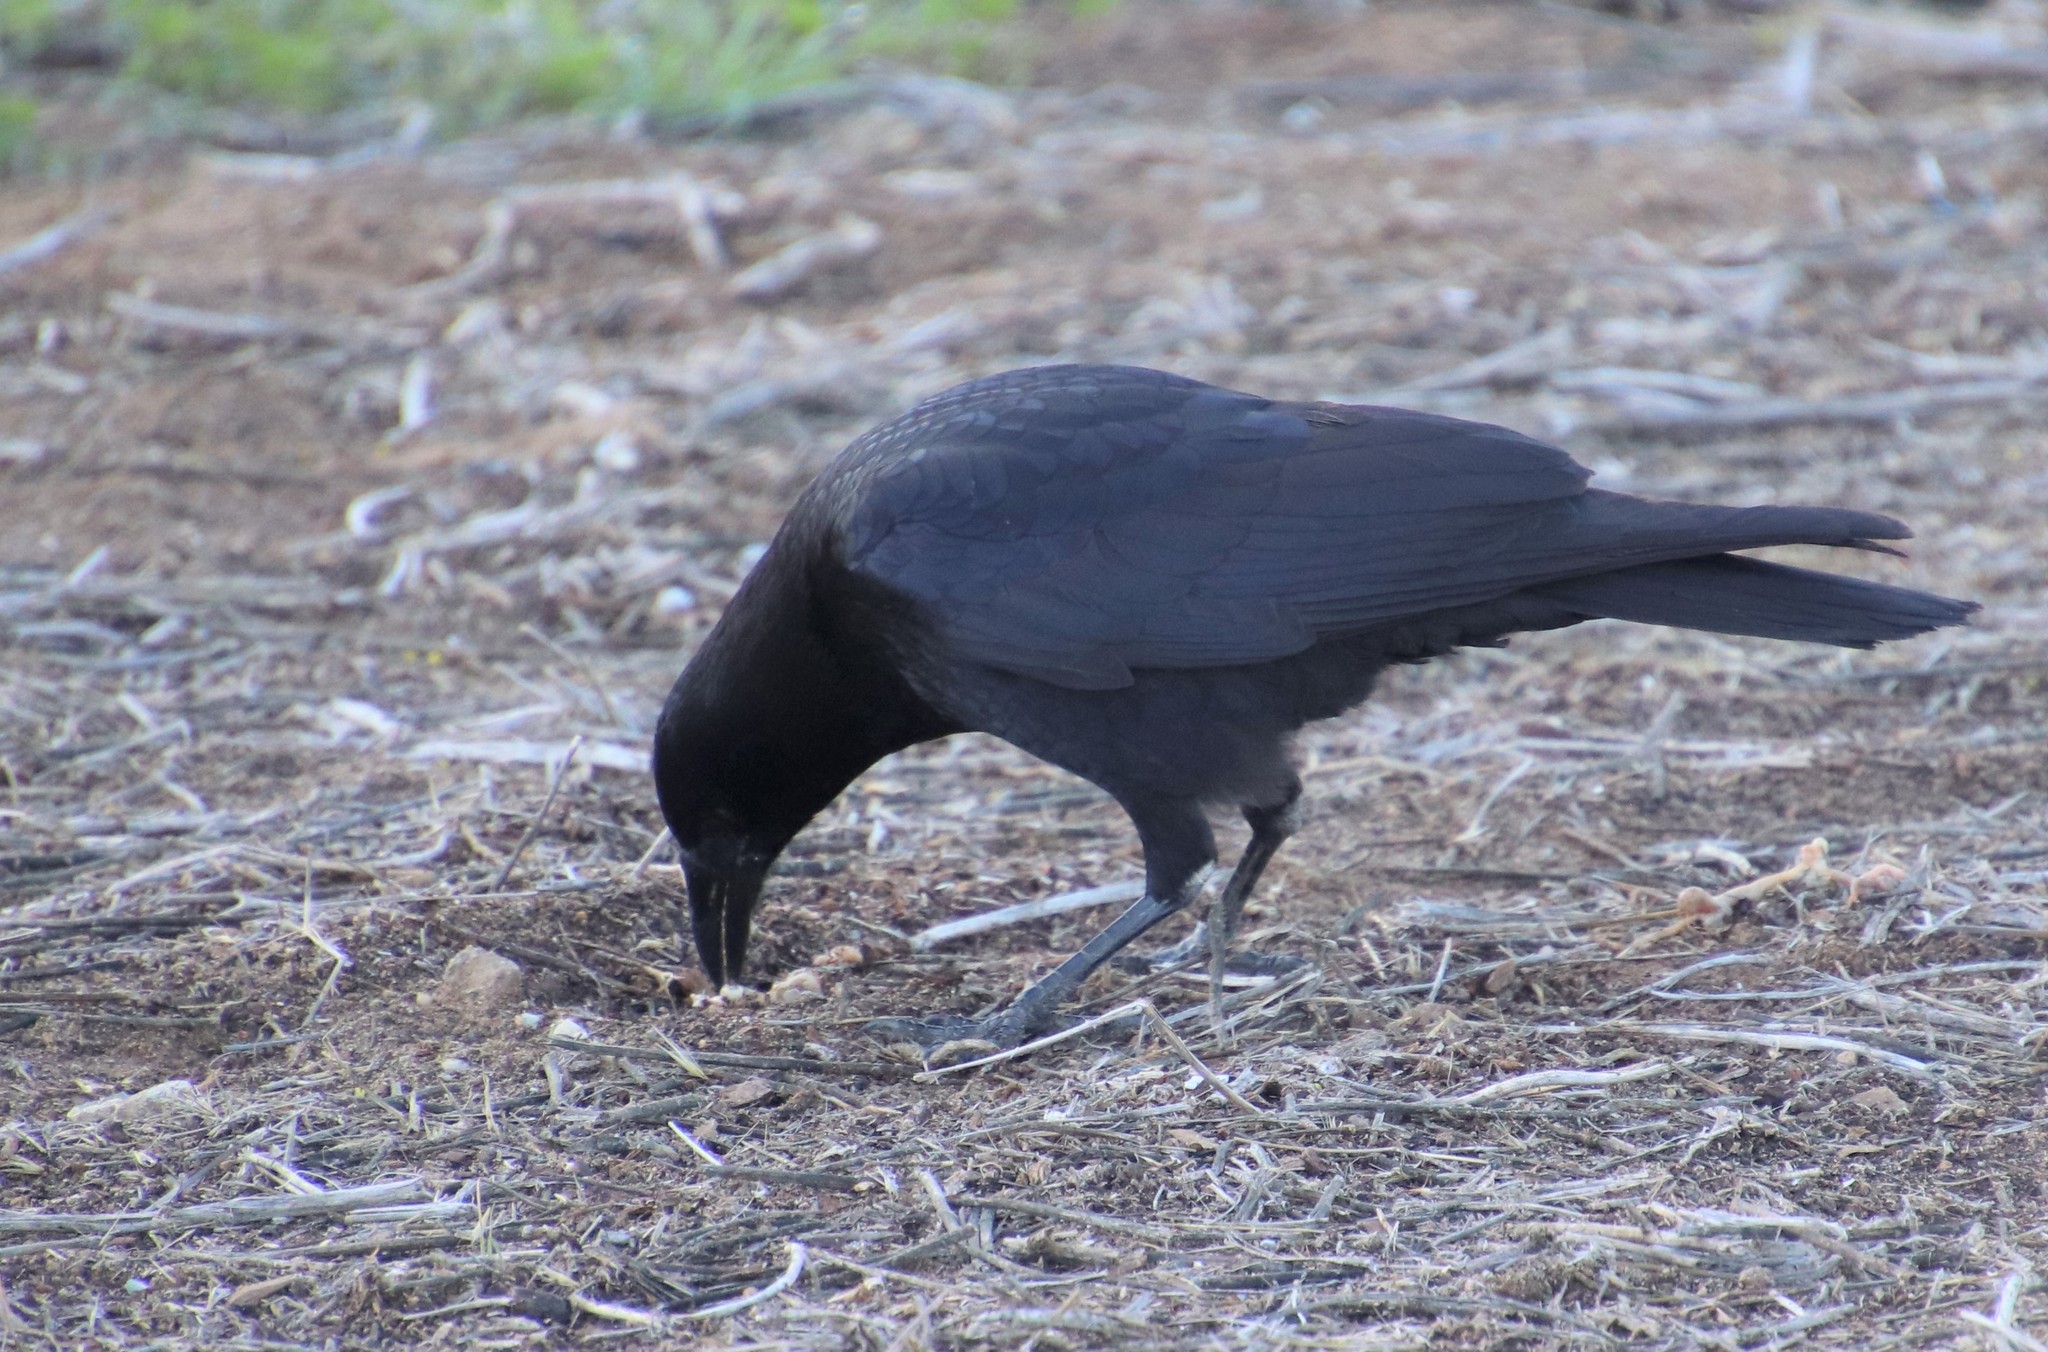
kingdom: Animalia
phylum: Chordata
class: Aves
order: Passeriformes
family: Corvidae
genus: Corvus
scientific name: Corvus brachyrhynchos
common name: American crow
